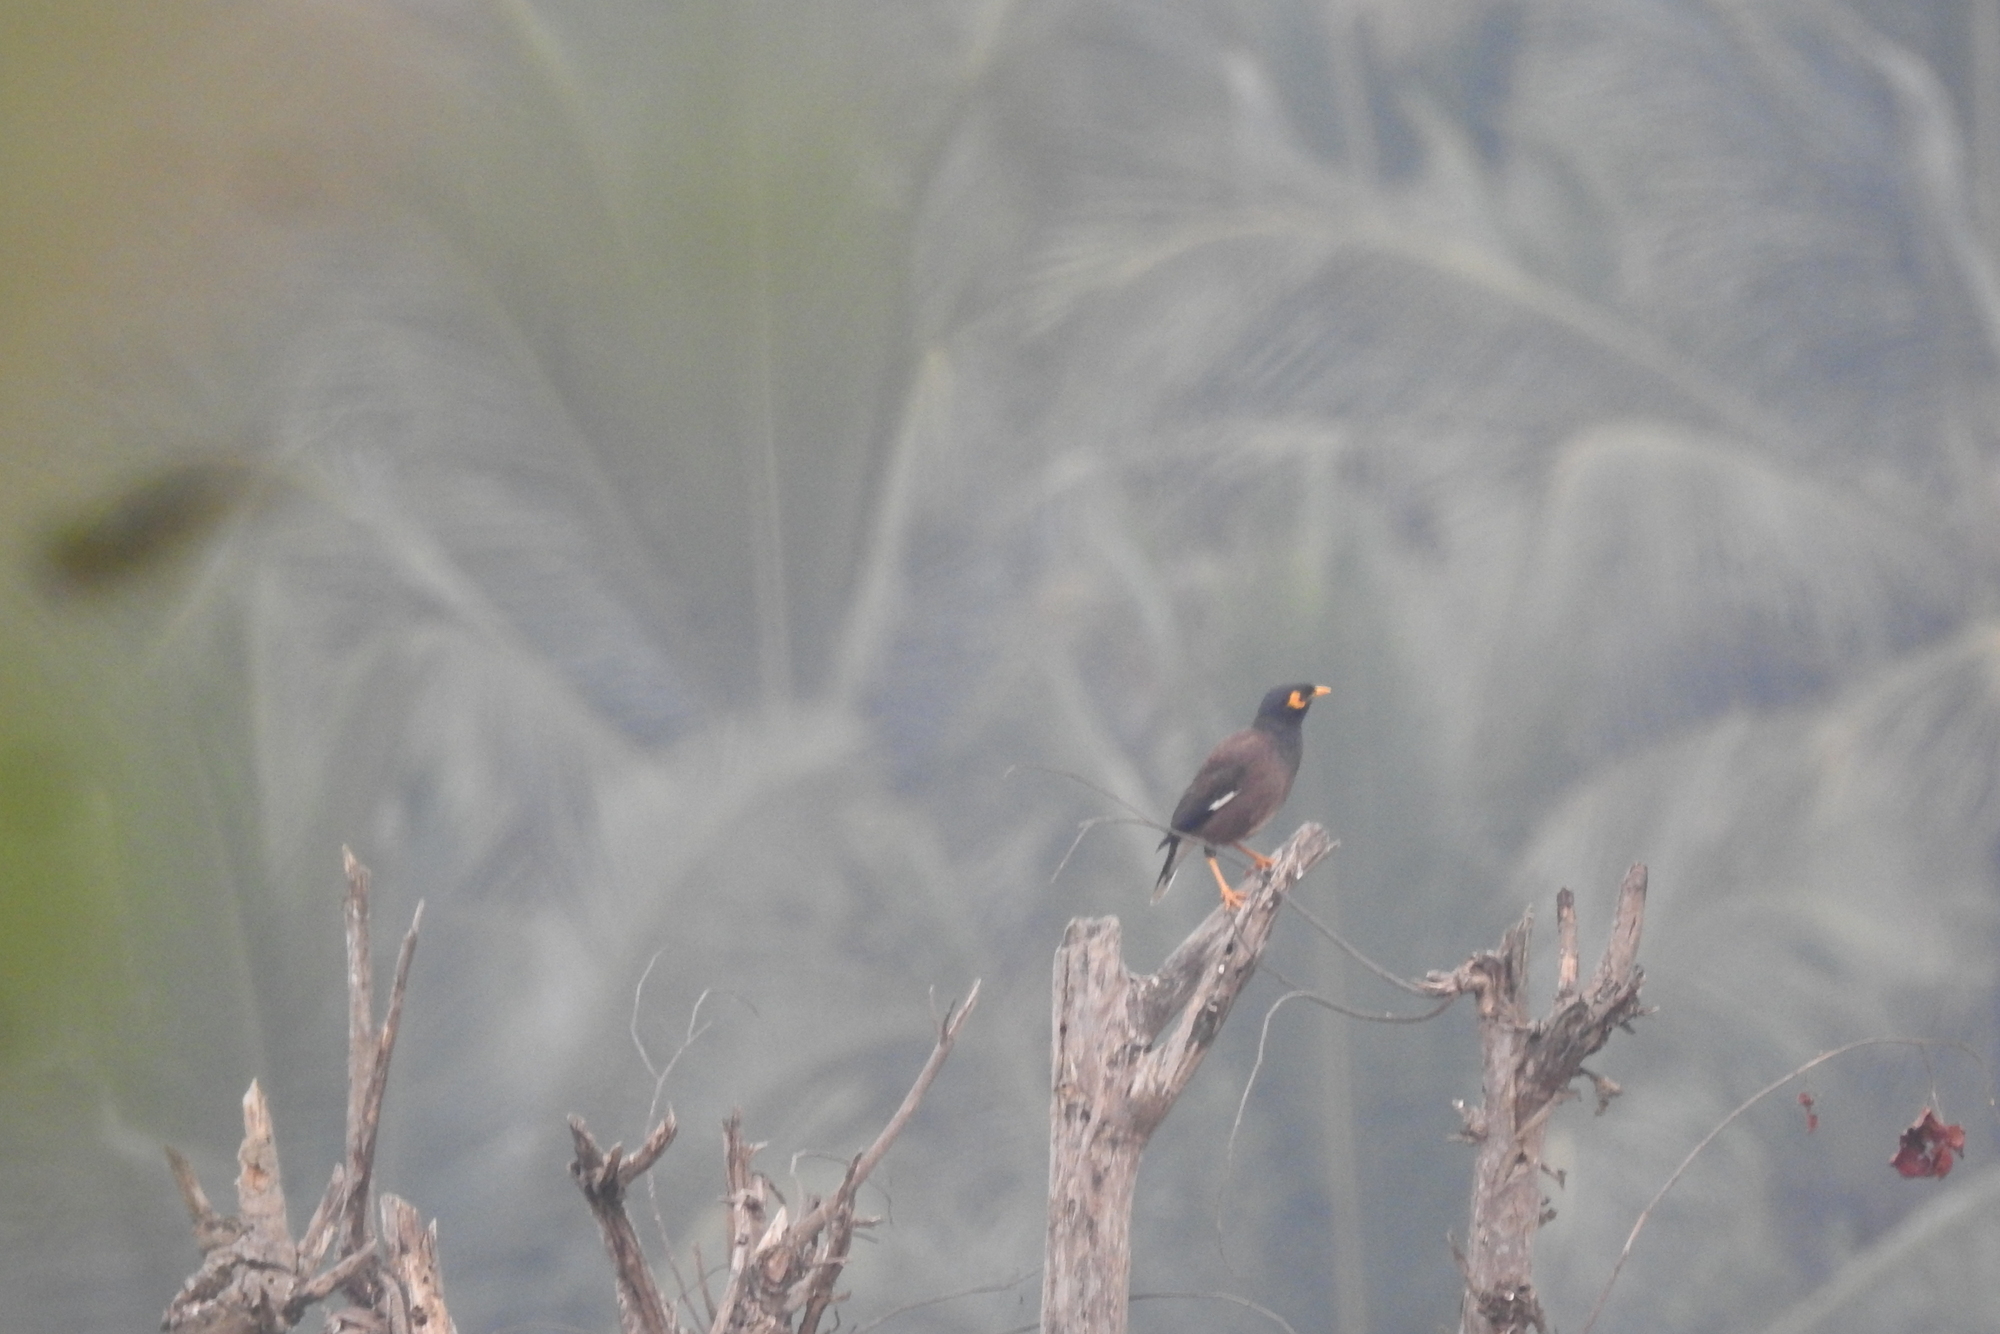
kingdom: Animalia
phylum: Chordata
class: Aves
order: Passeriformes
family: Sturnidae
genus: Acridotheres
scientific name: Acridotheres tristis
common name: Common myna
